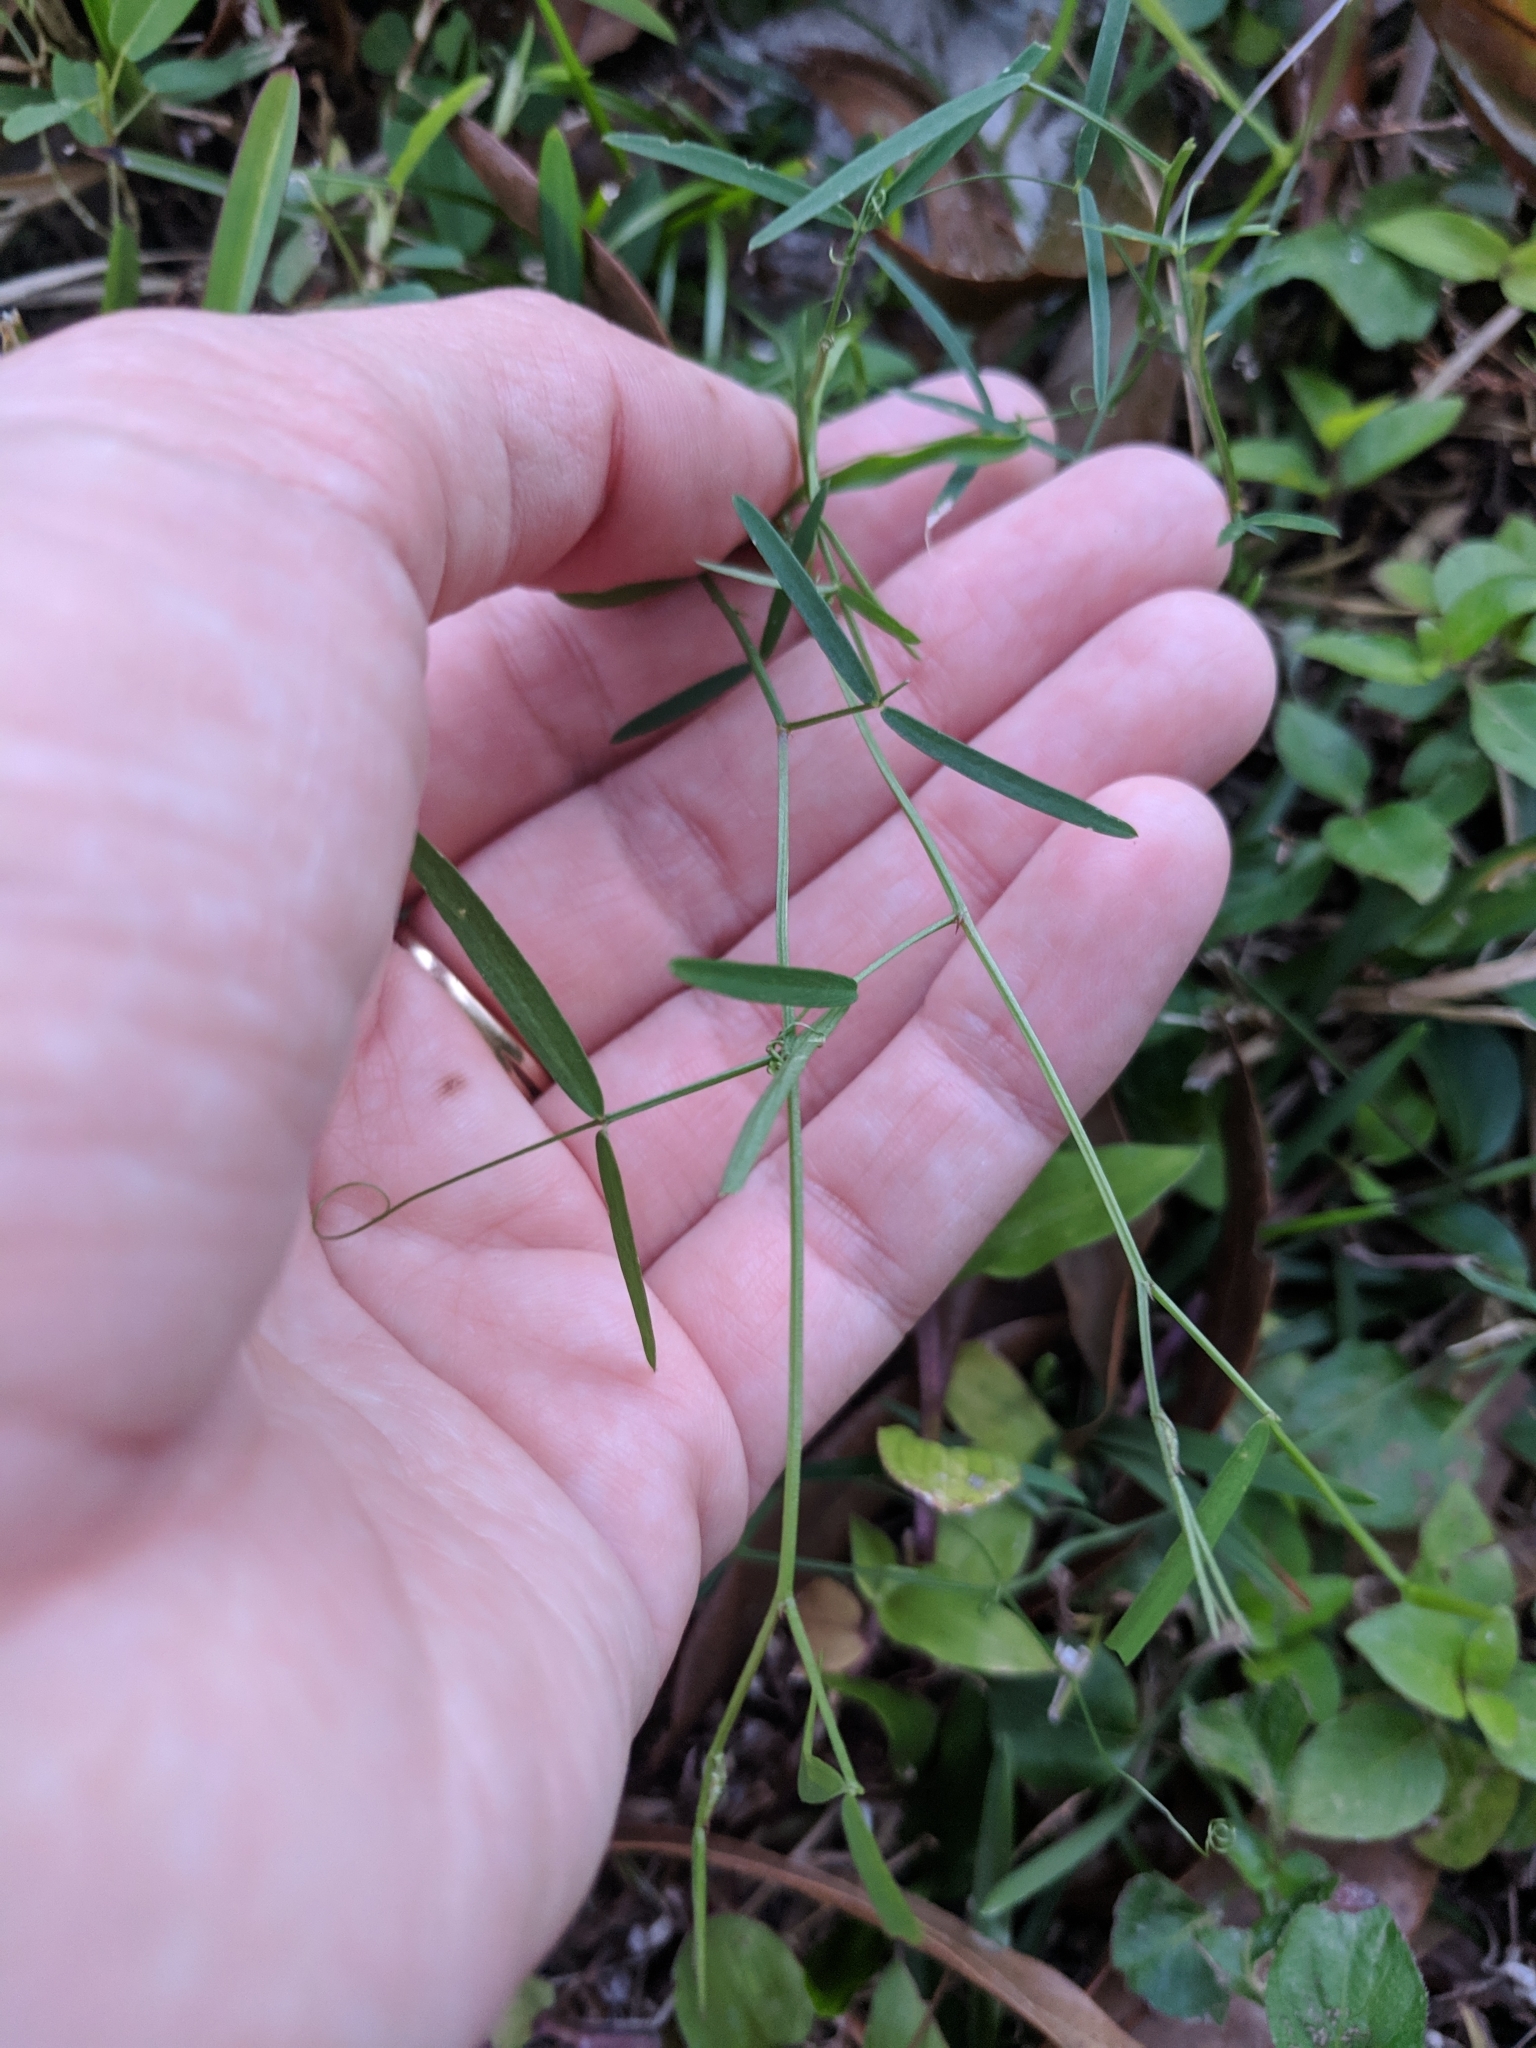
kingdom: Plantae
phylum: Tracheophyta
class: Magnoliopsida
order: Fabales
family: Fabaceae
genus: Vicia
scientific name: Vicia acutifolia
